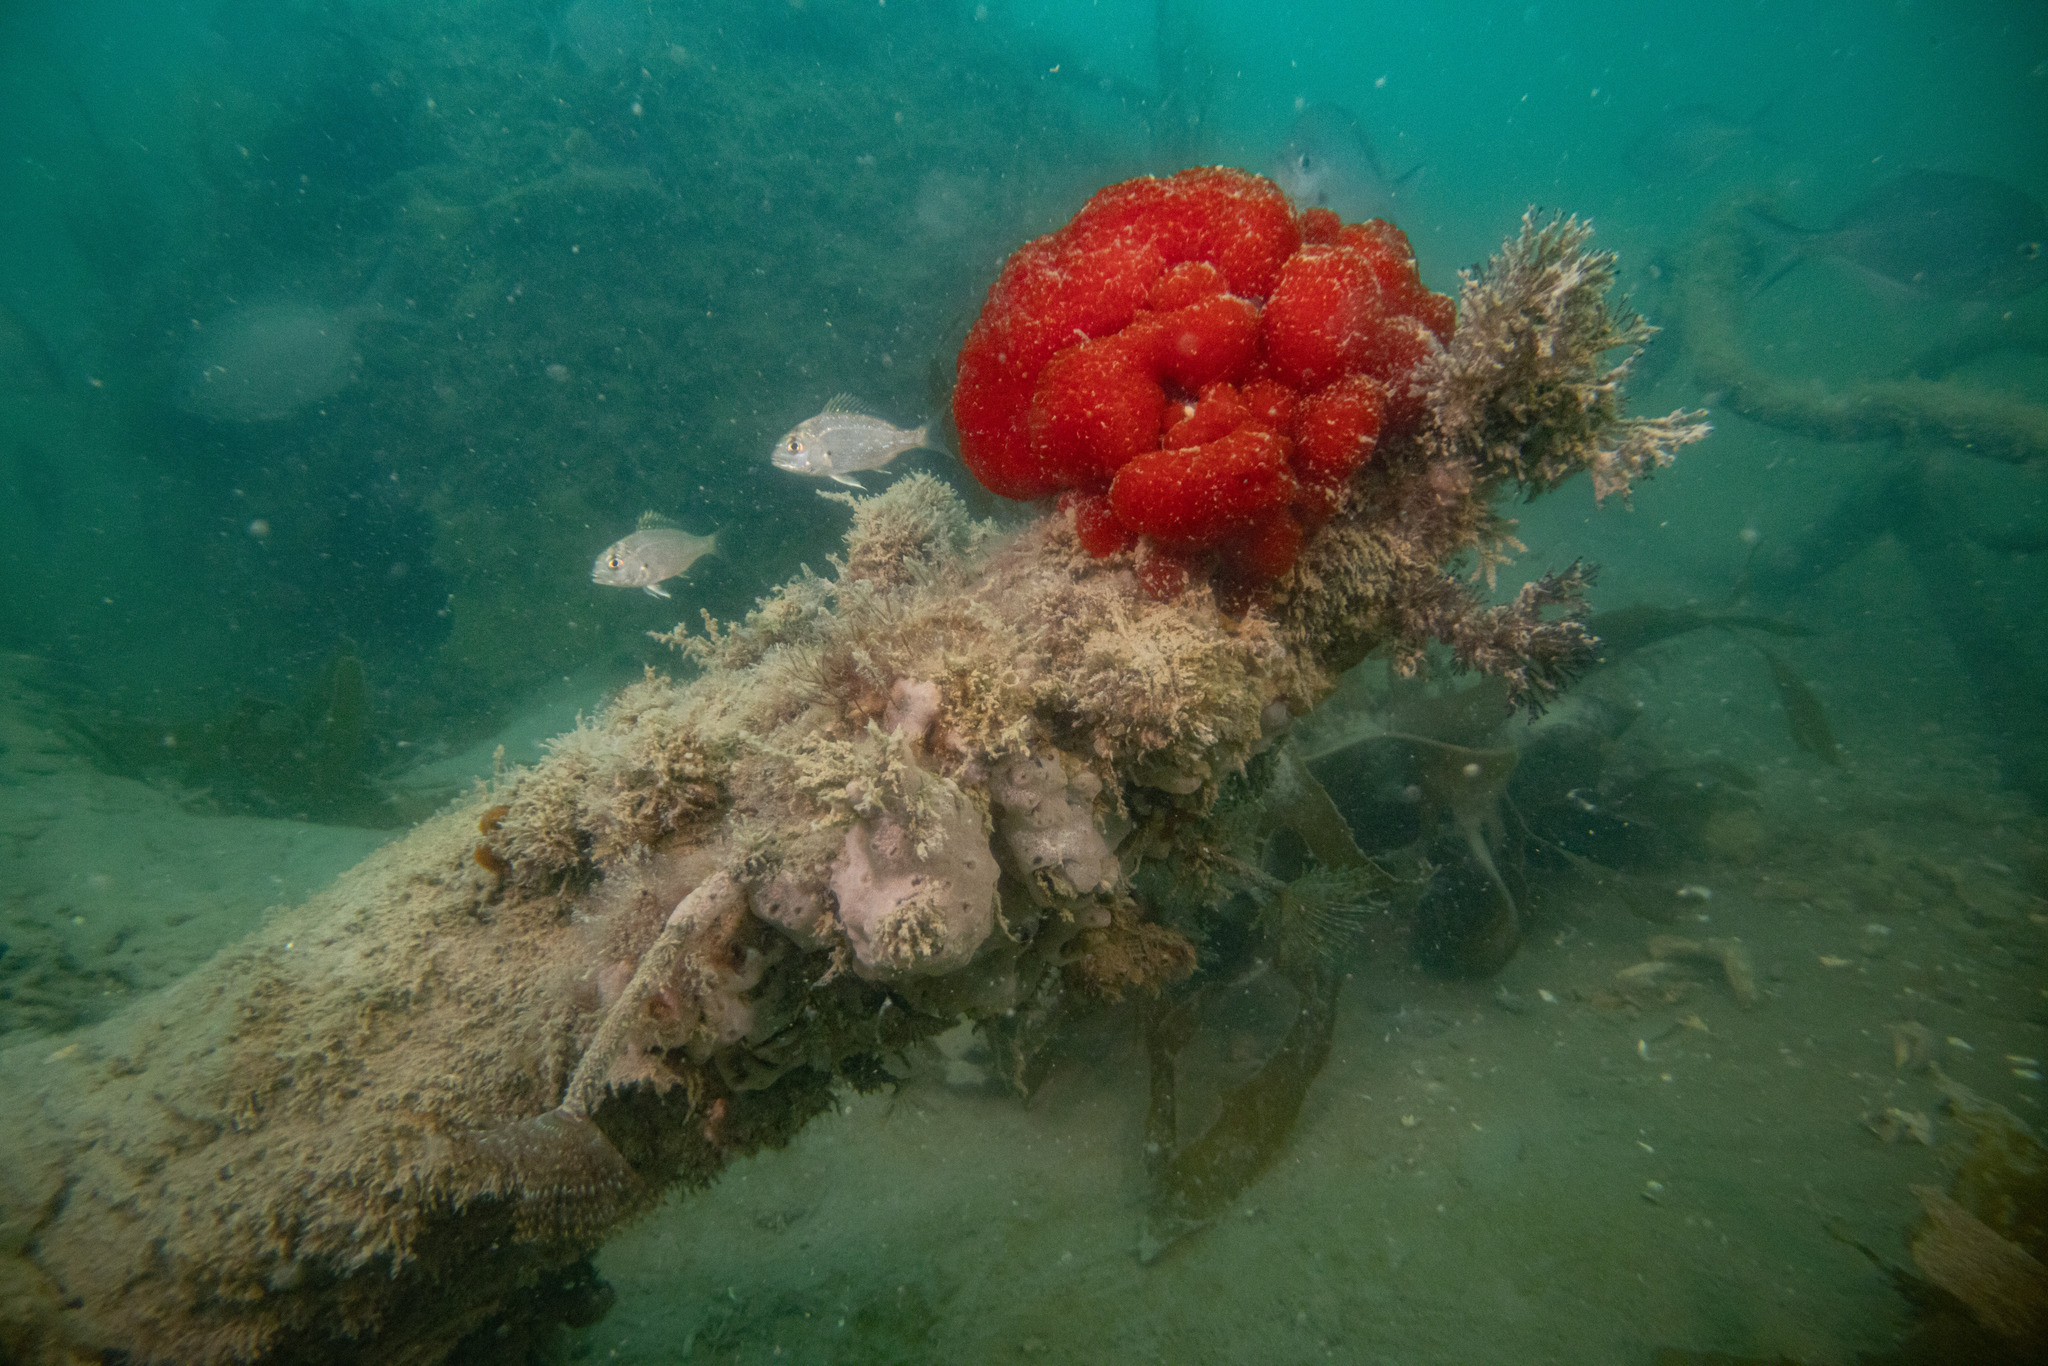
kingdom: Animalia
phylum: Chordata
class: Ascidiacea
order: Aplousobranchia
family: Polyclinidae
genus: Synoicum
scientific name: Synoicum kuranui
